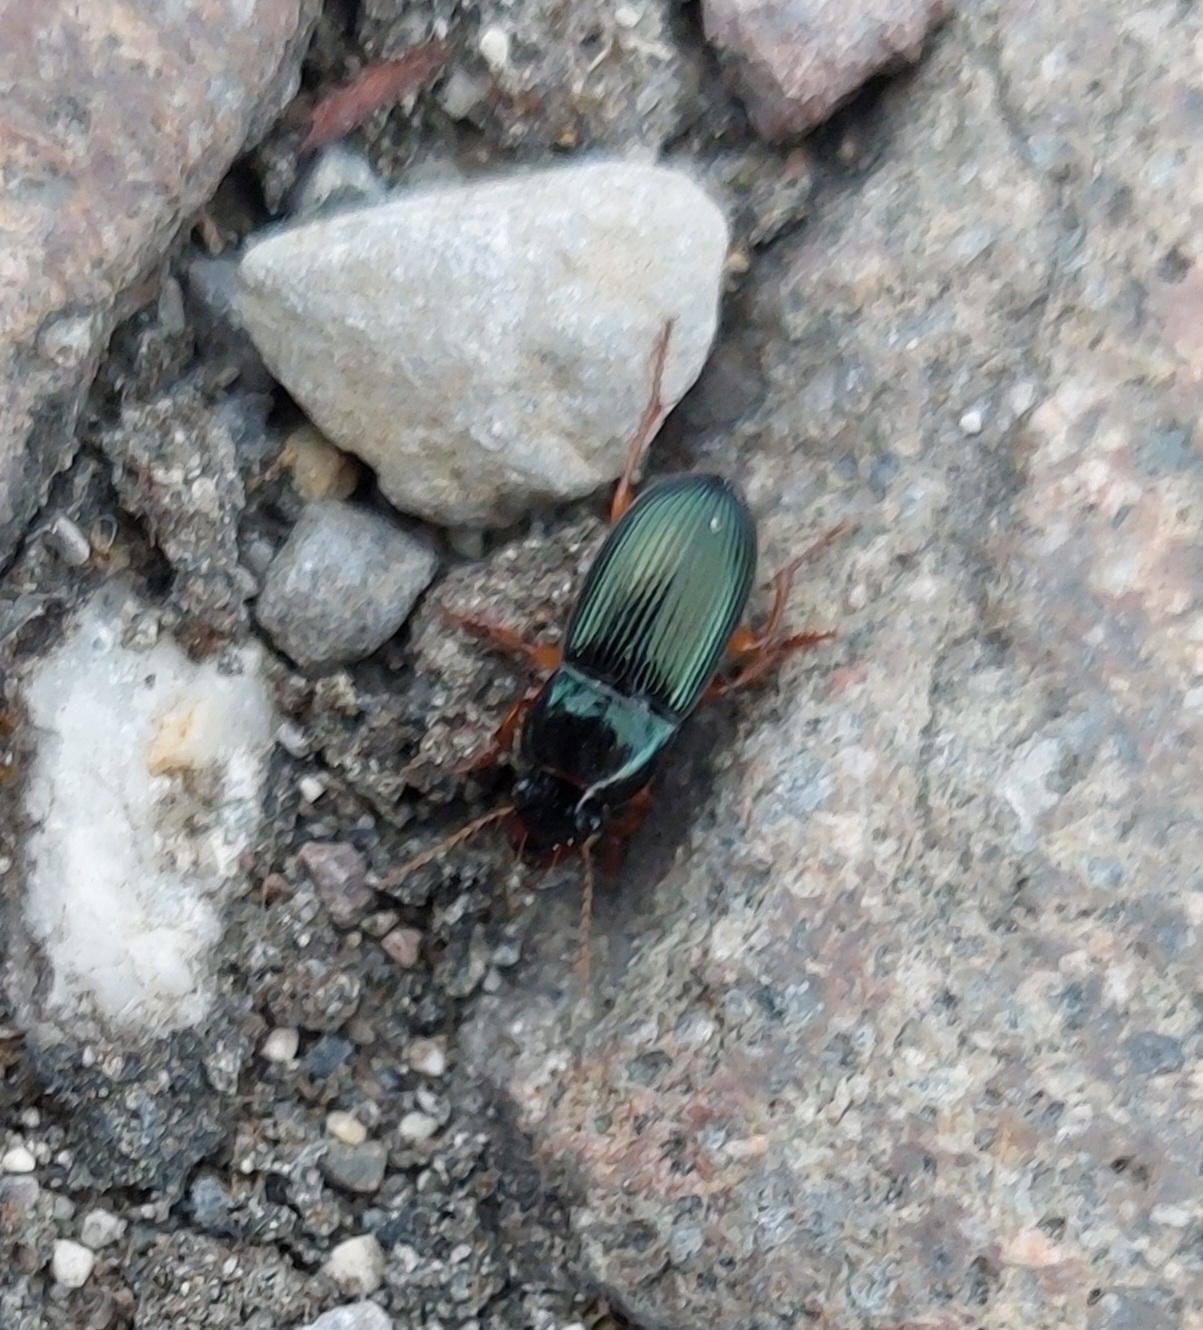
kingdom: Animalia
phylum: Arthropoda
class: Insecta
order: Coleoptera
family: Carabidae
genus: Harpalus
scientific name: Harpalus rubripes
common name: Red-legged harp ground beetle
